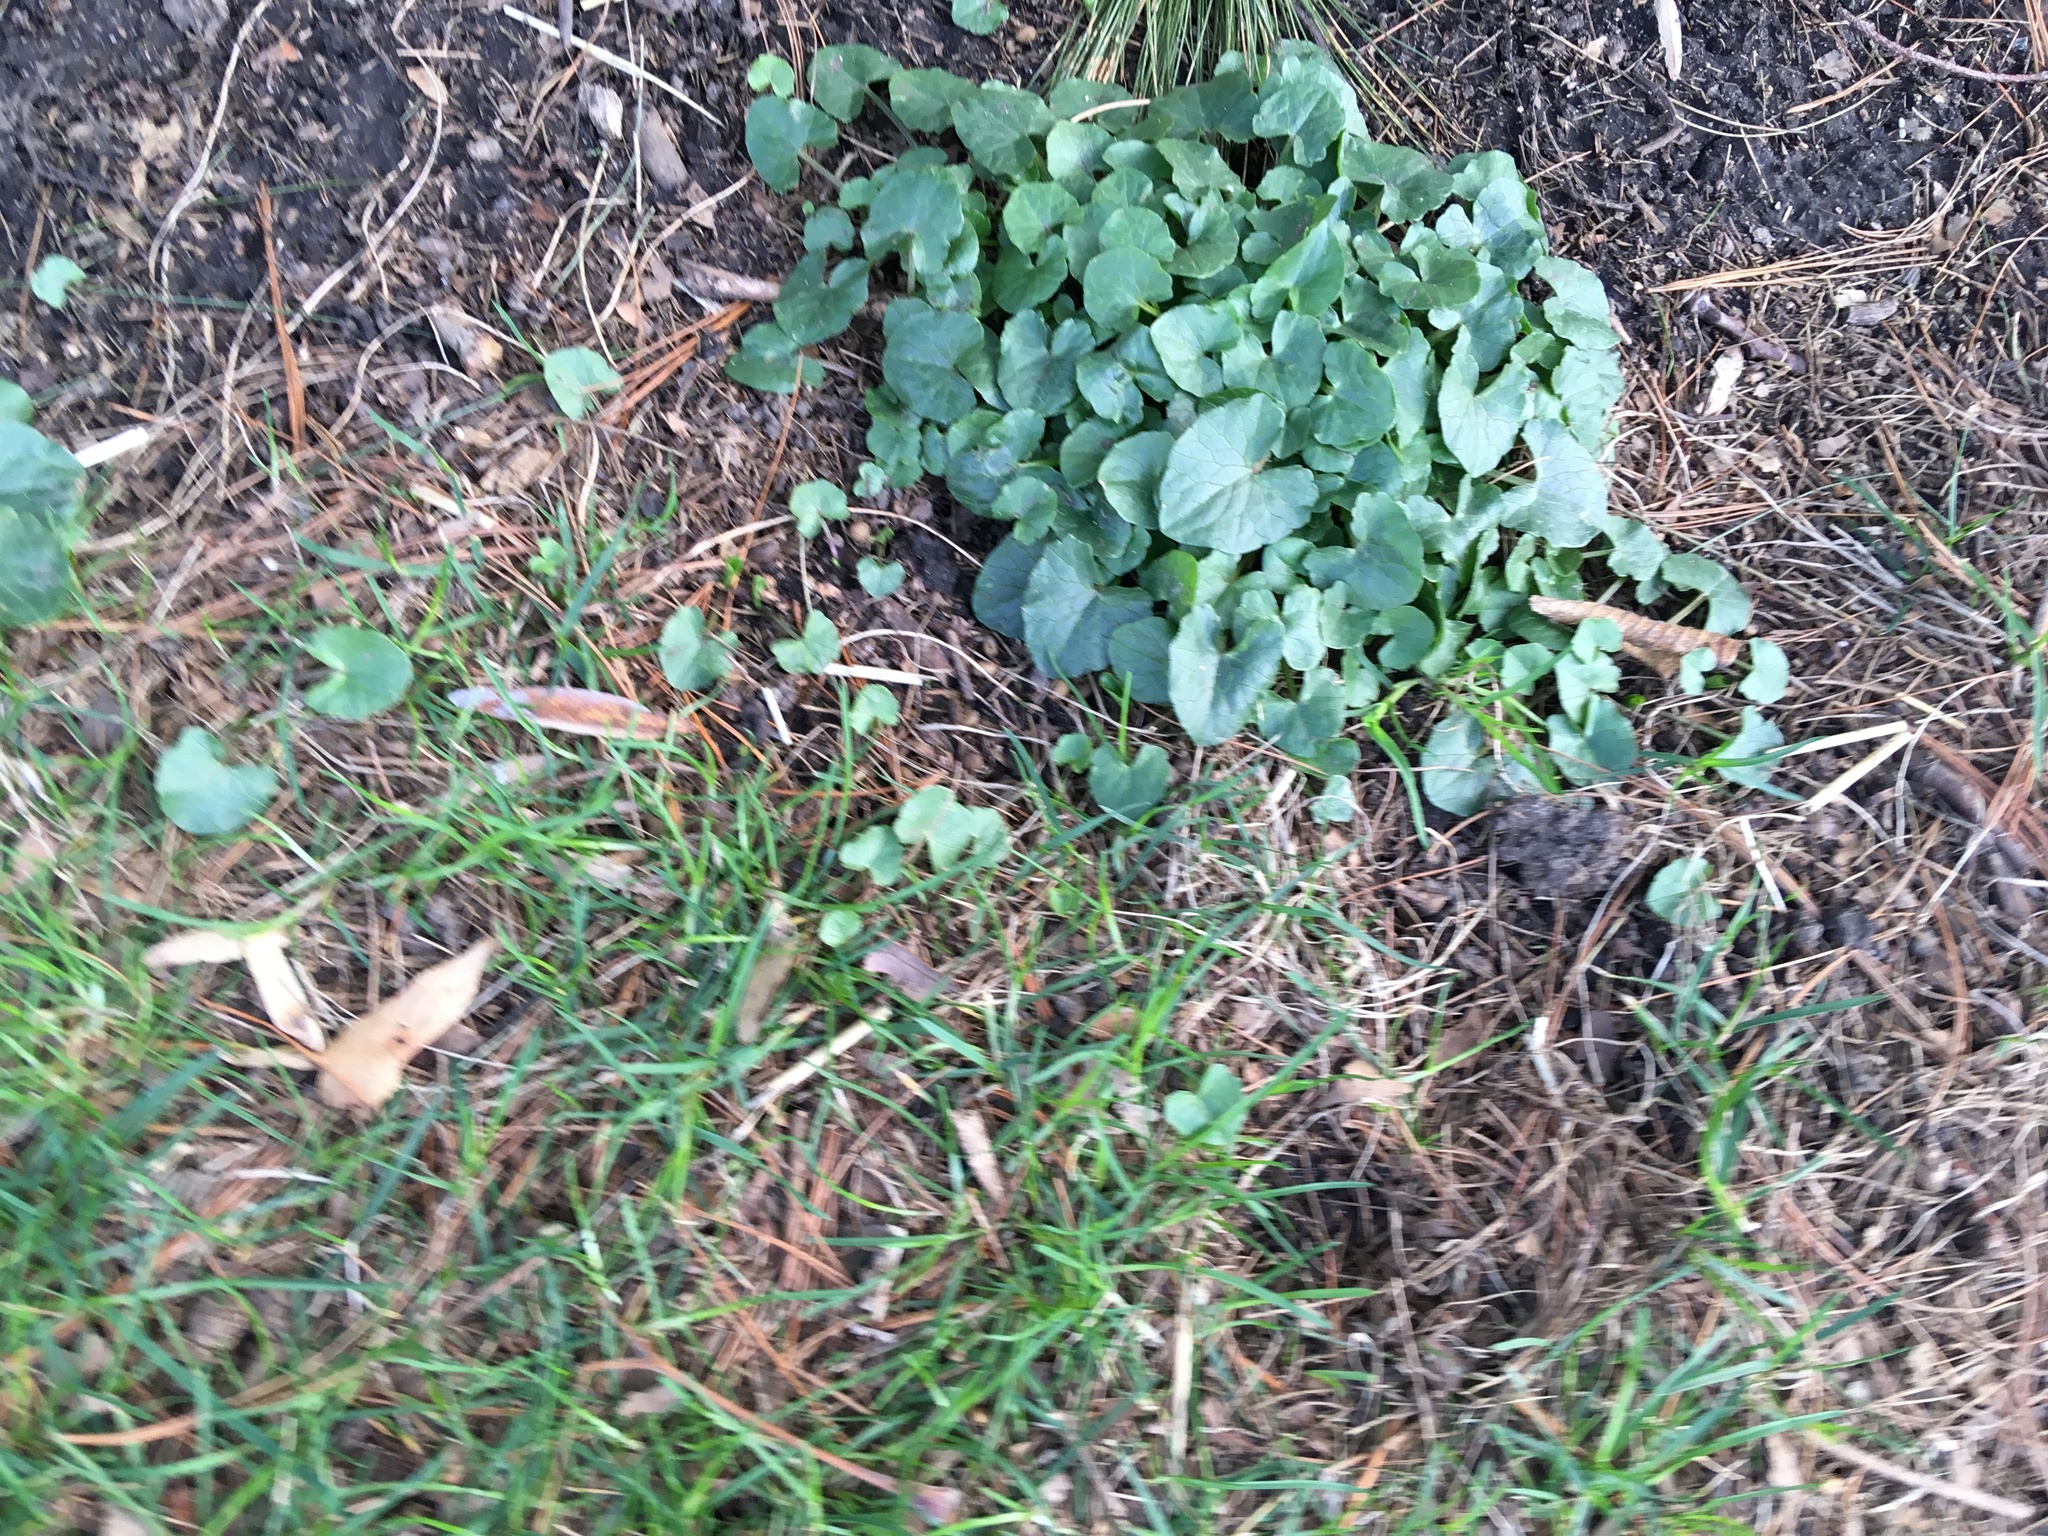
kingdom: Plantae
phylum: Tracheophyta
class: Magnoliopsida
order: Ranunculales
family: Ranunculaceae
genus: Ficaria
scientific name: Ficaria verna
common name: Lesser celandine
